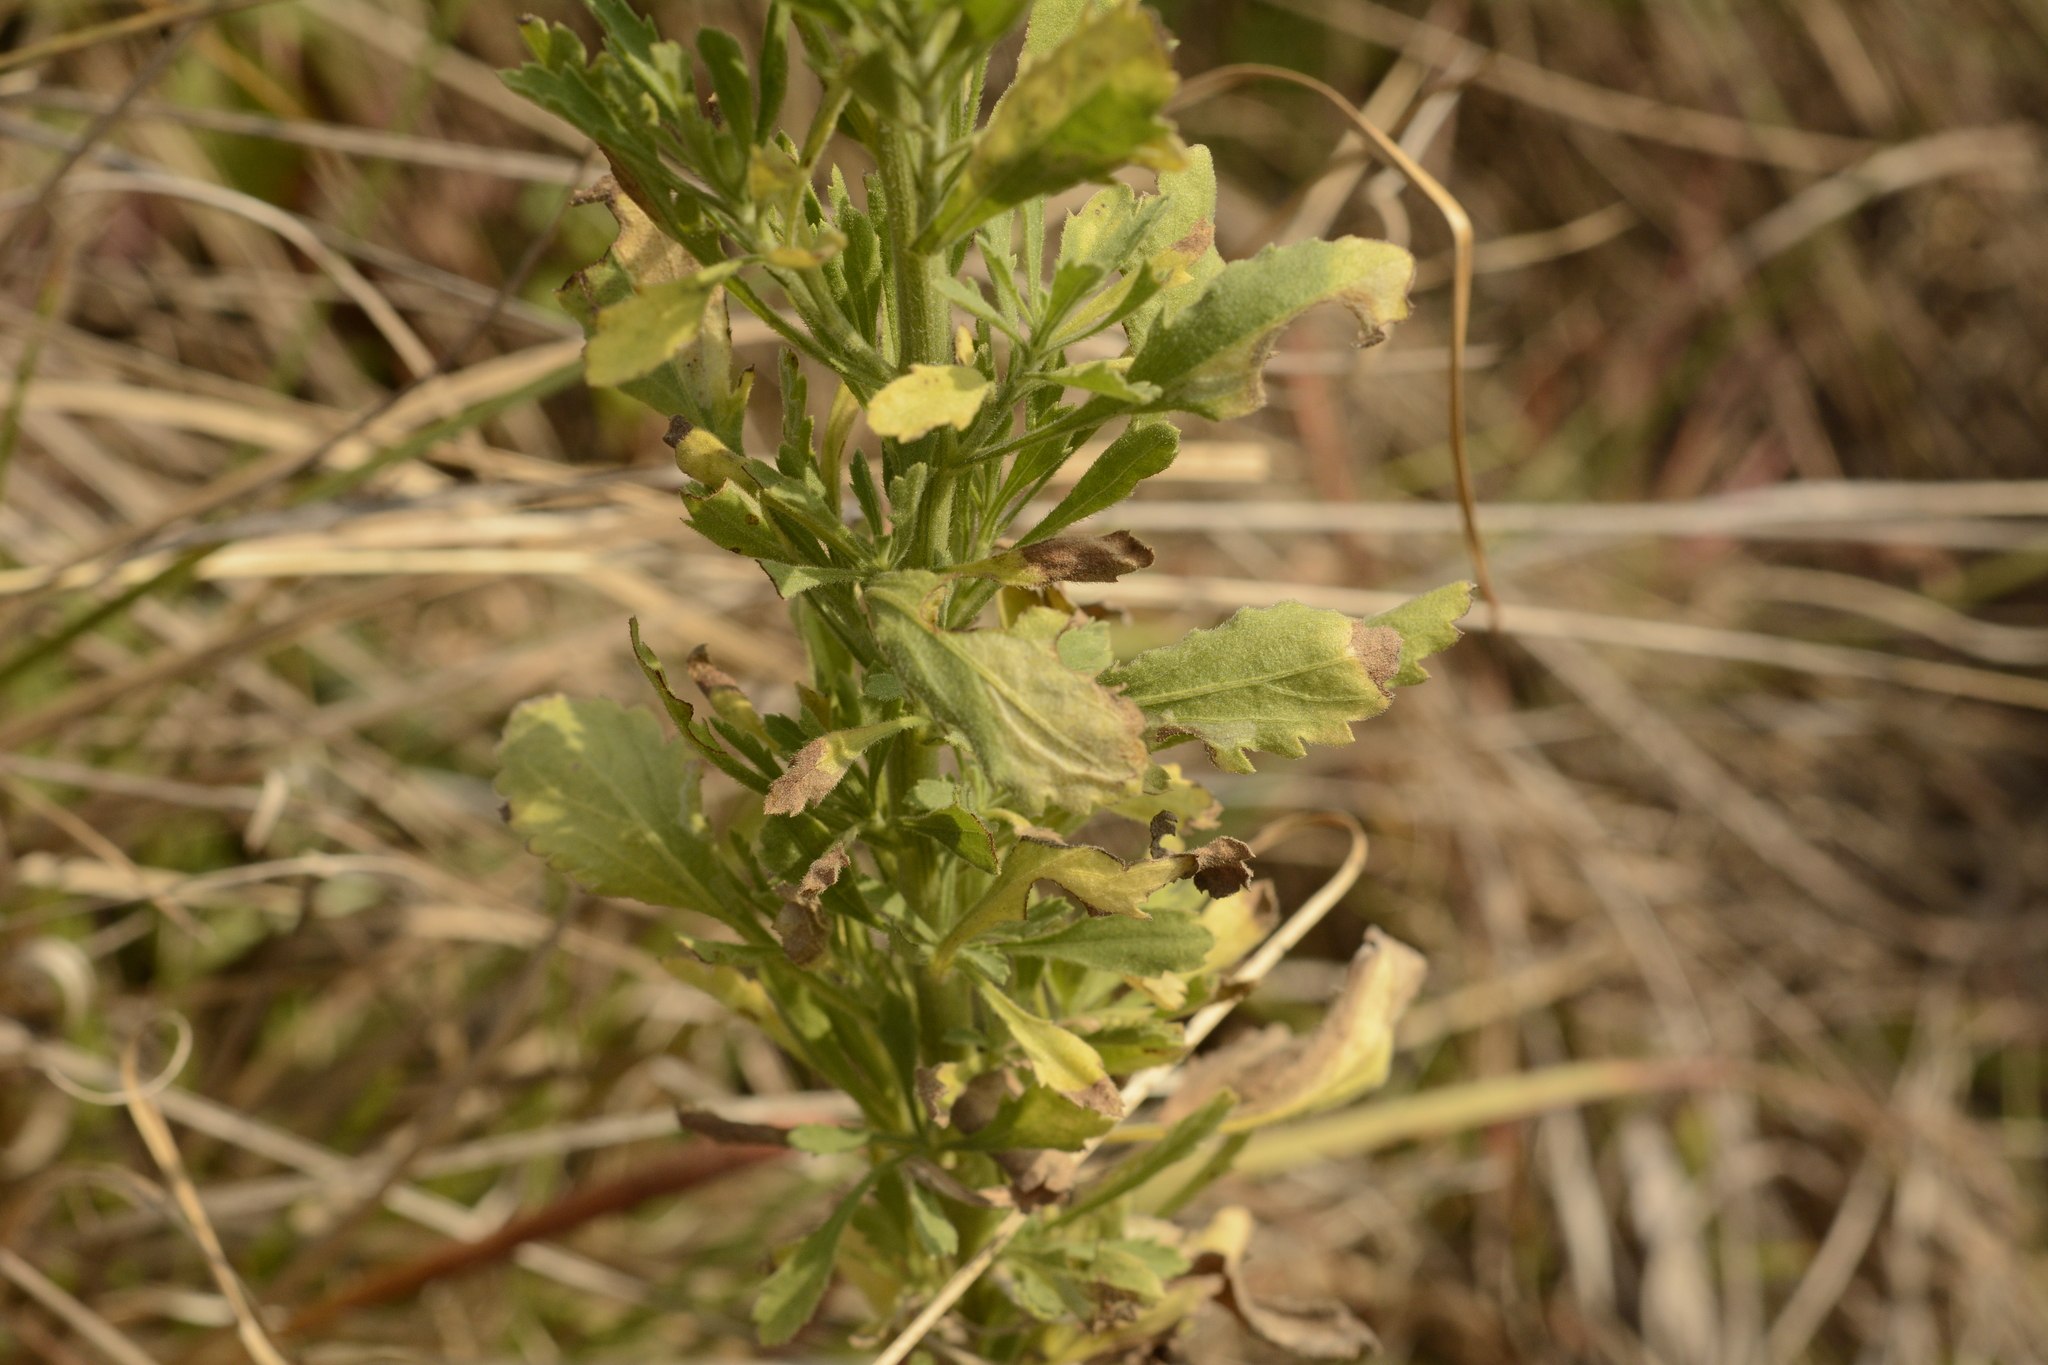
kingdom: Plantae
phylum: Tracheophyta
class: Magnoliopsida
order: Asterales
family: Asteraceae
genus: Nidorella
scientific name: Nidorella triloba
